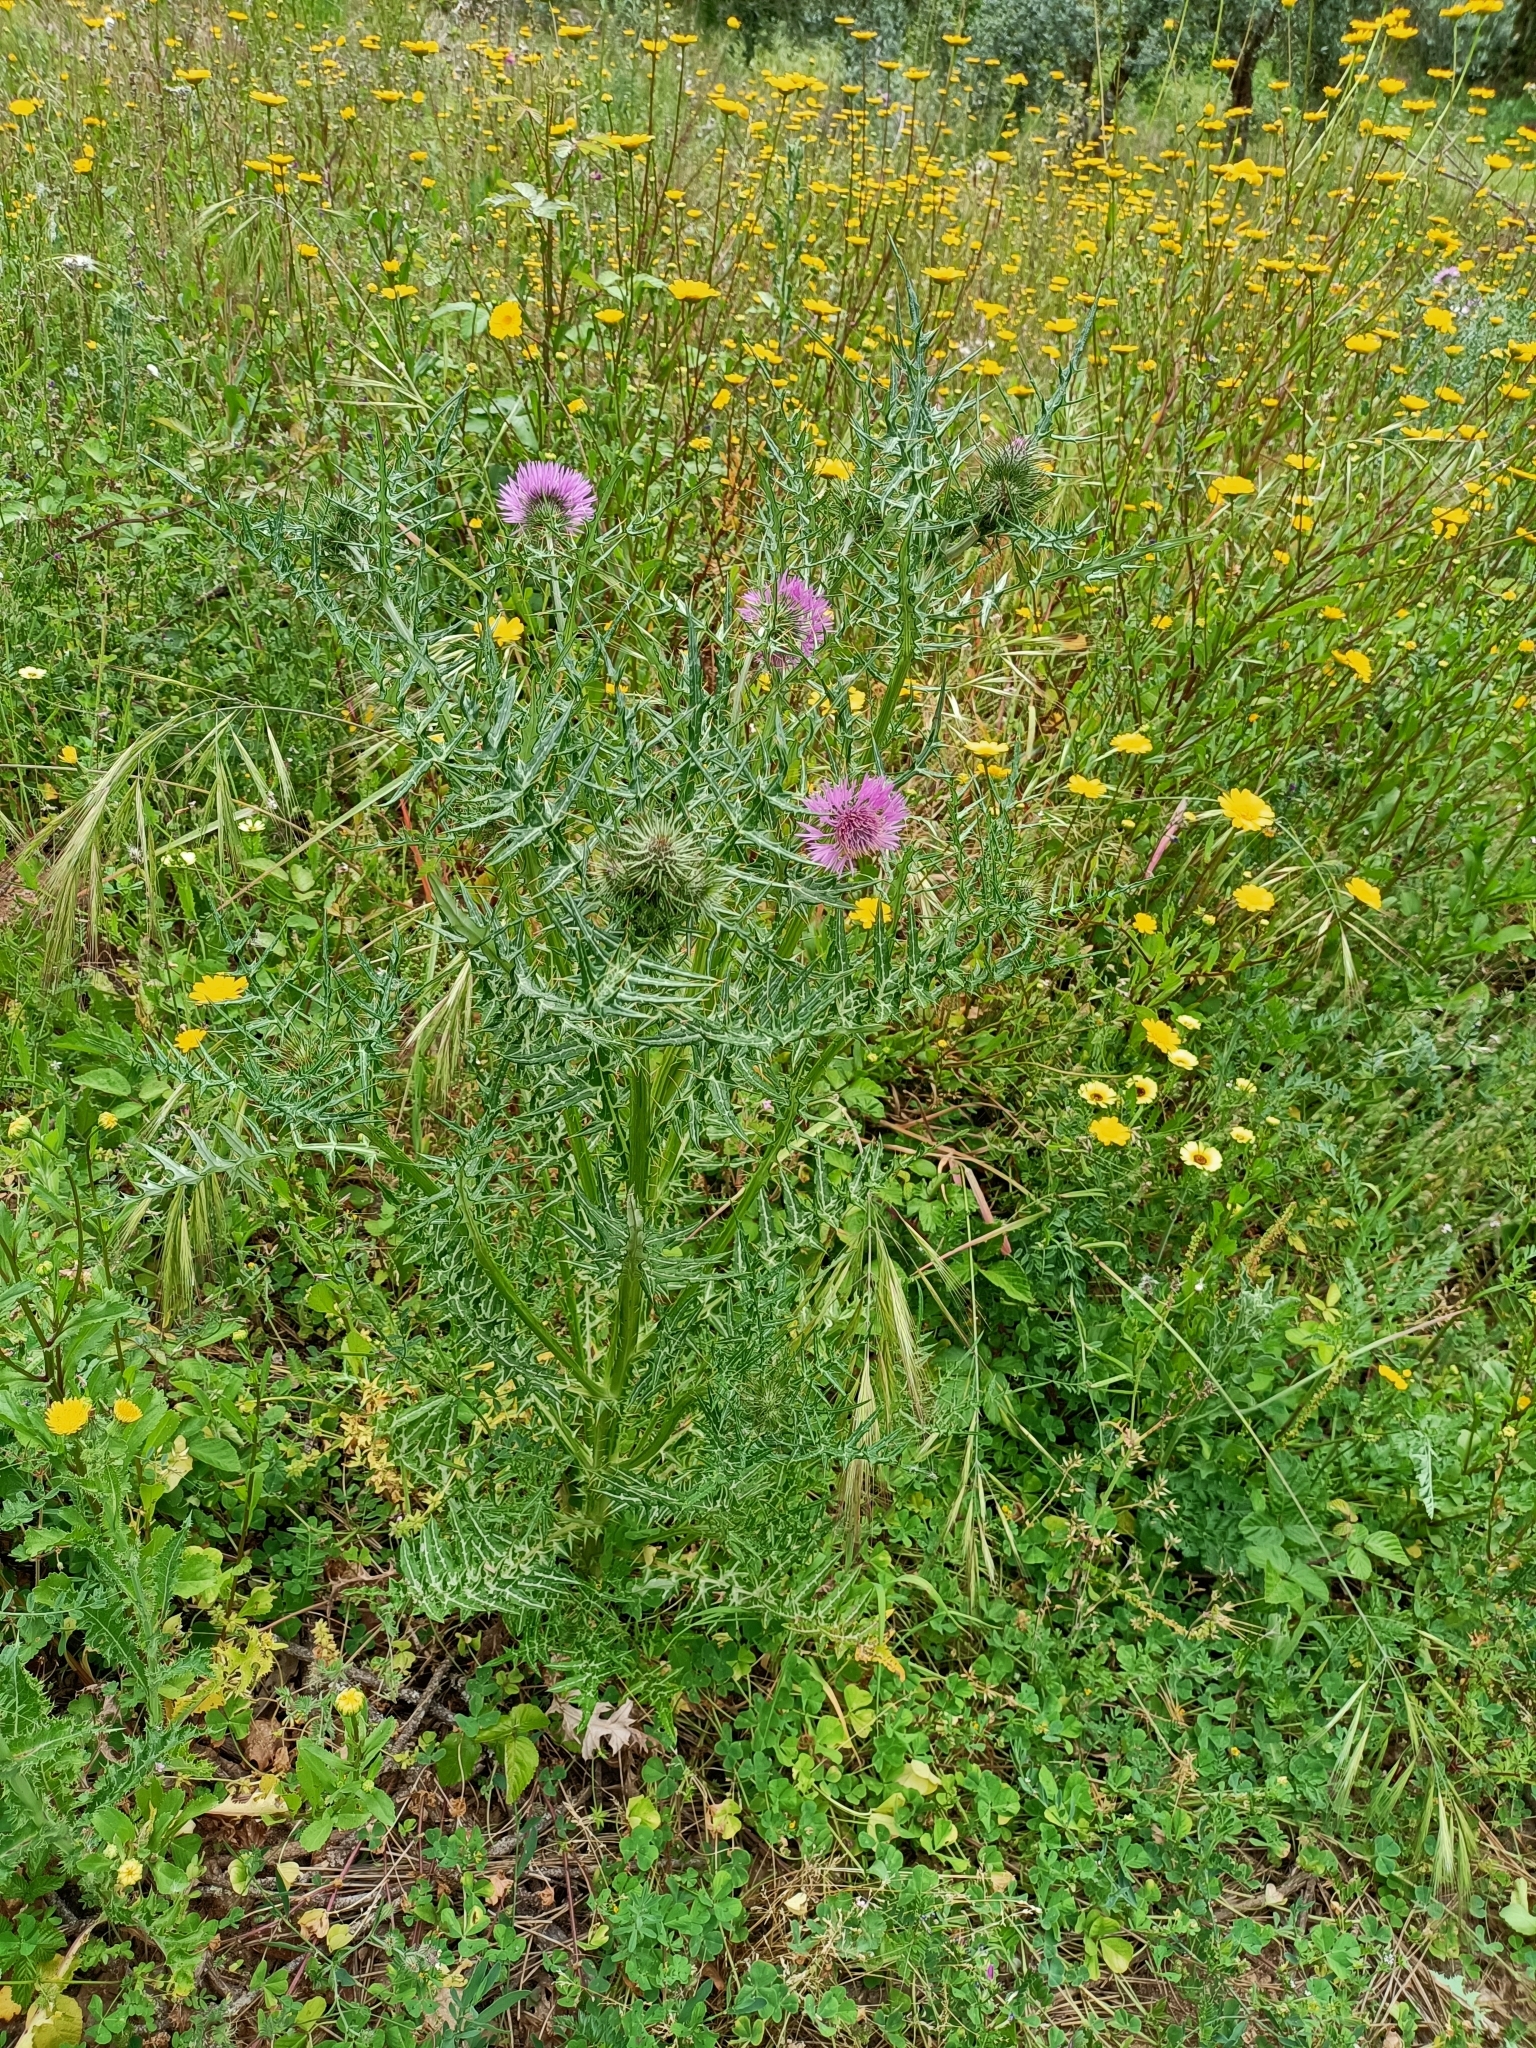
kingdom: Plantae
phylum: Tracheophyta
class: Magnoliopsida
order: Asterales
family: Asteraceae
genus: Galactites
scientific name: Galactites tomentosa
